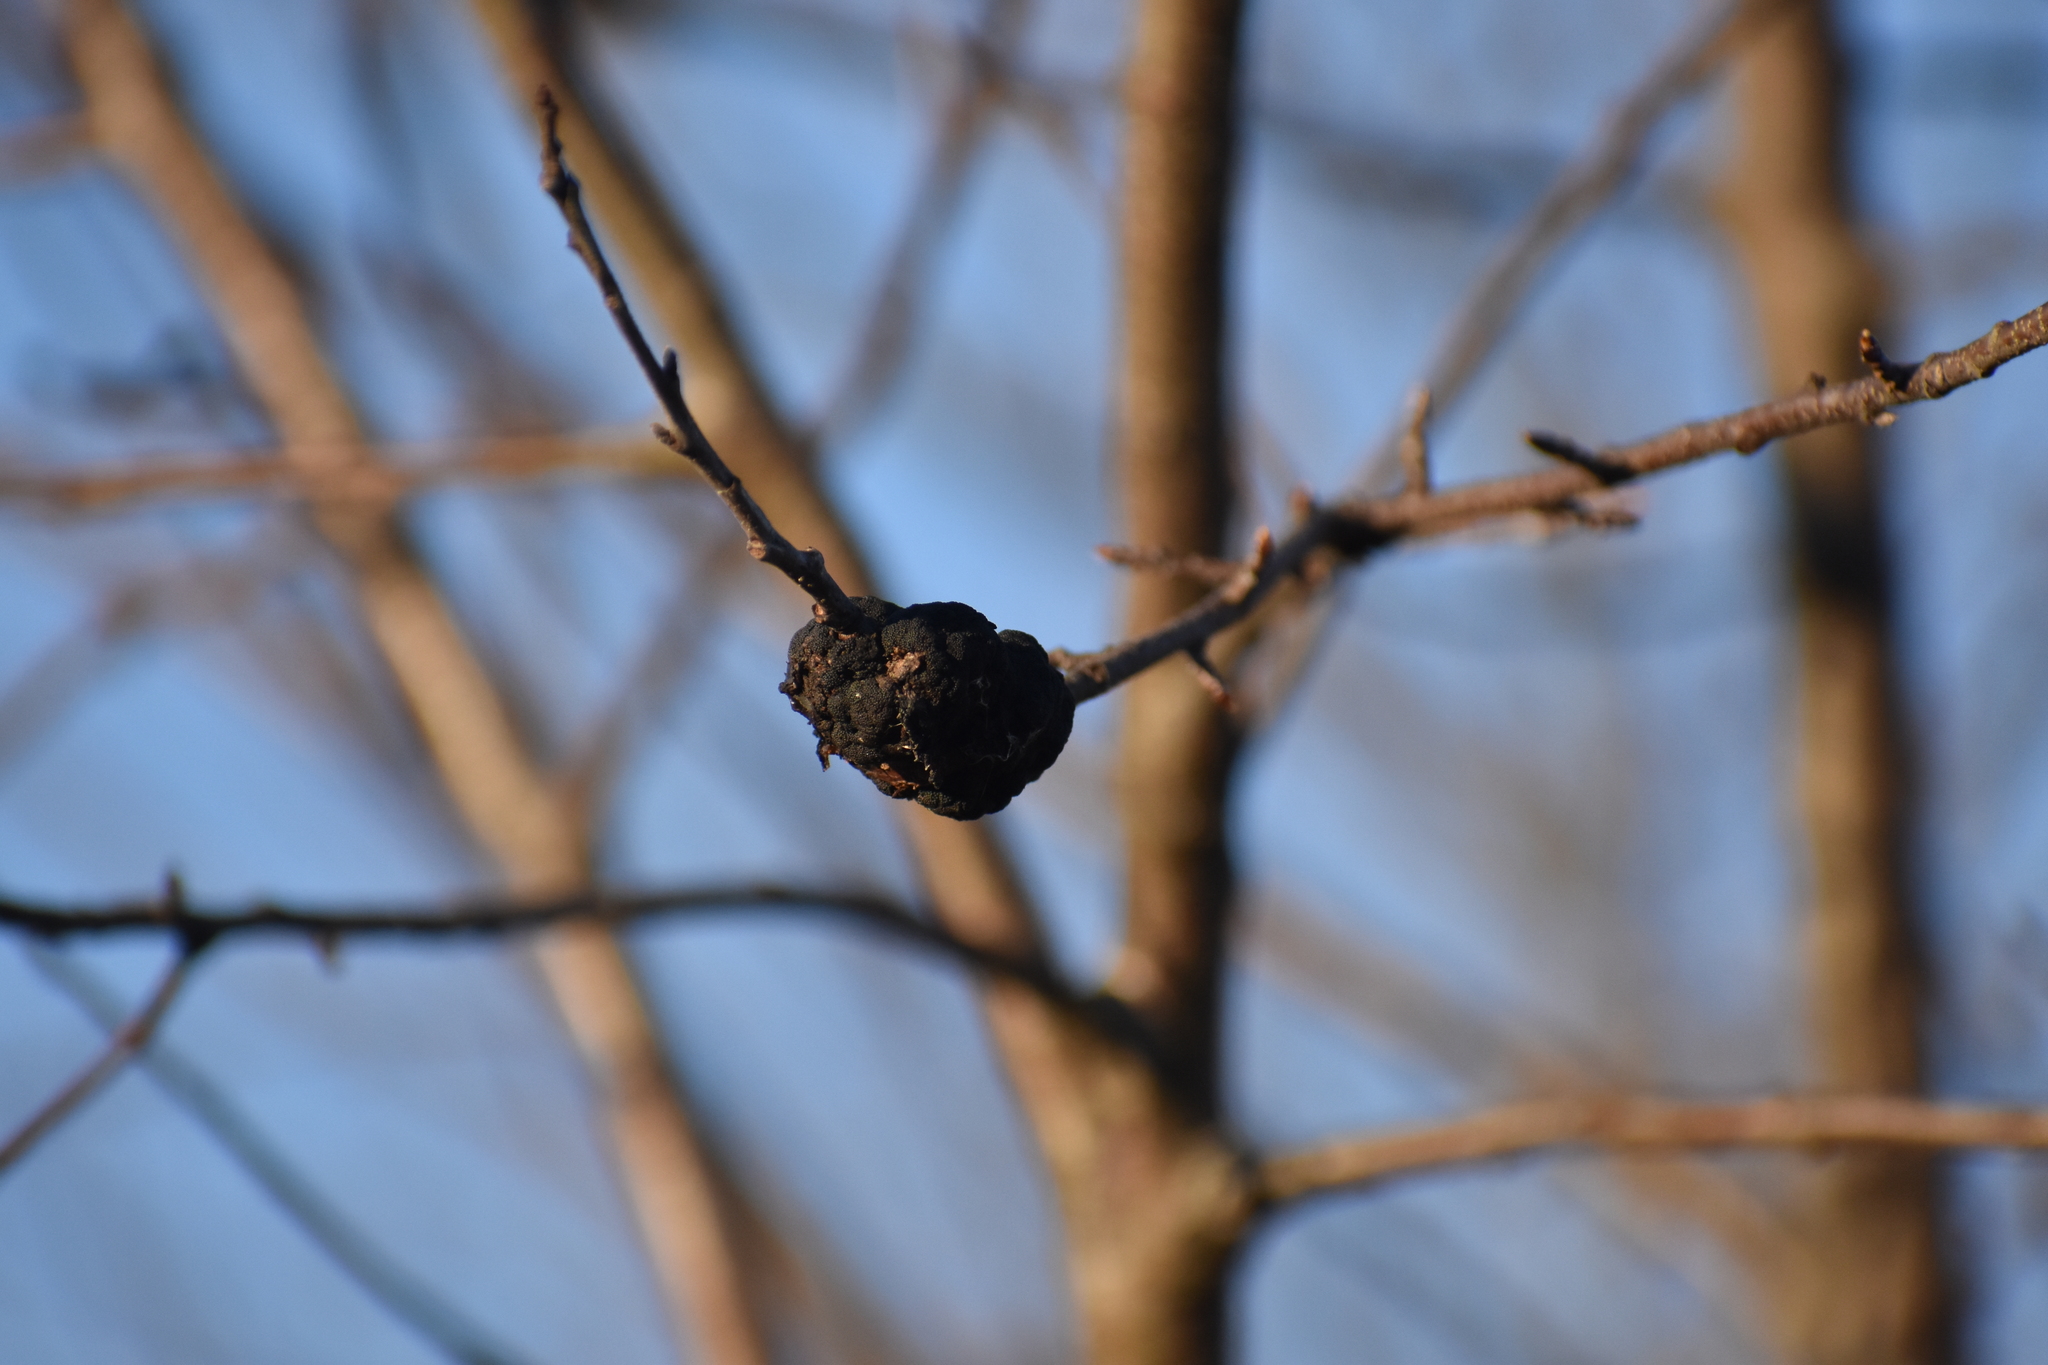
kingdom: Fungi
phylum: Ascomycota
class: Dothideomycetes
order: Venturiales
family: Venturiaceae
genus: Apiosporina
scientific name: Apiosporina morbosa
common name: Black knot
